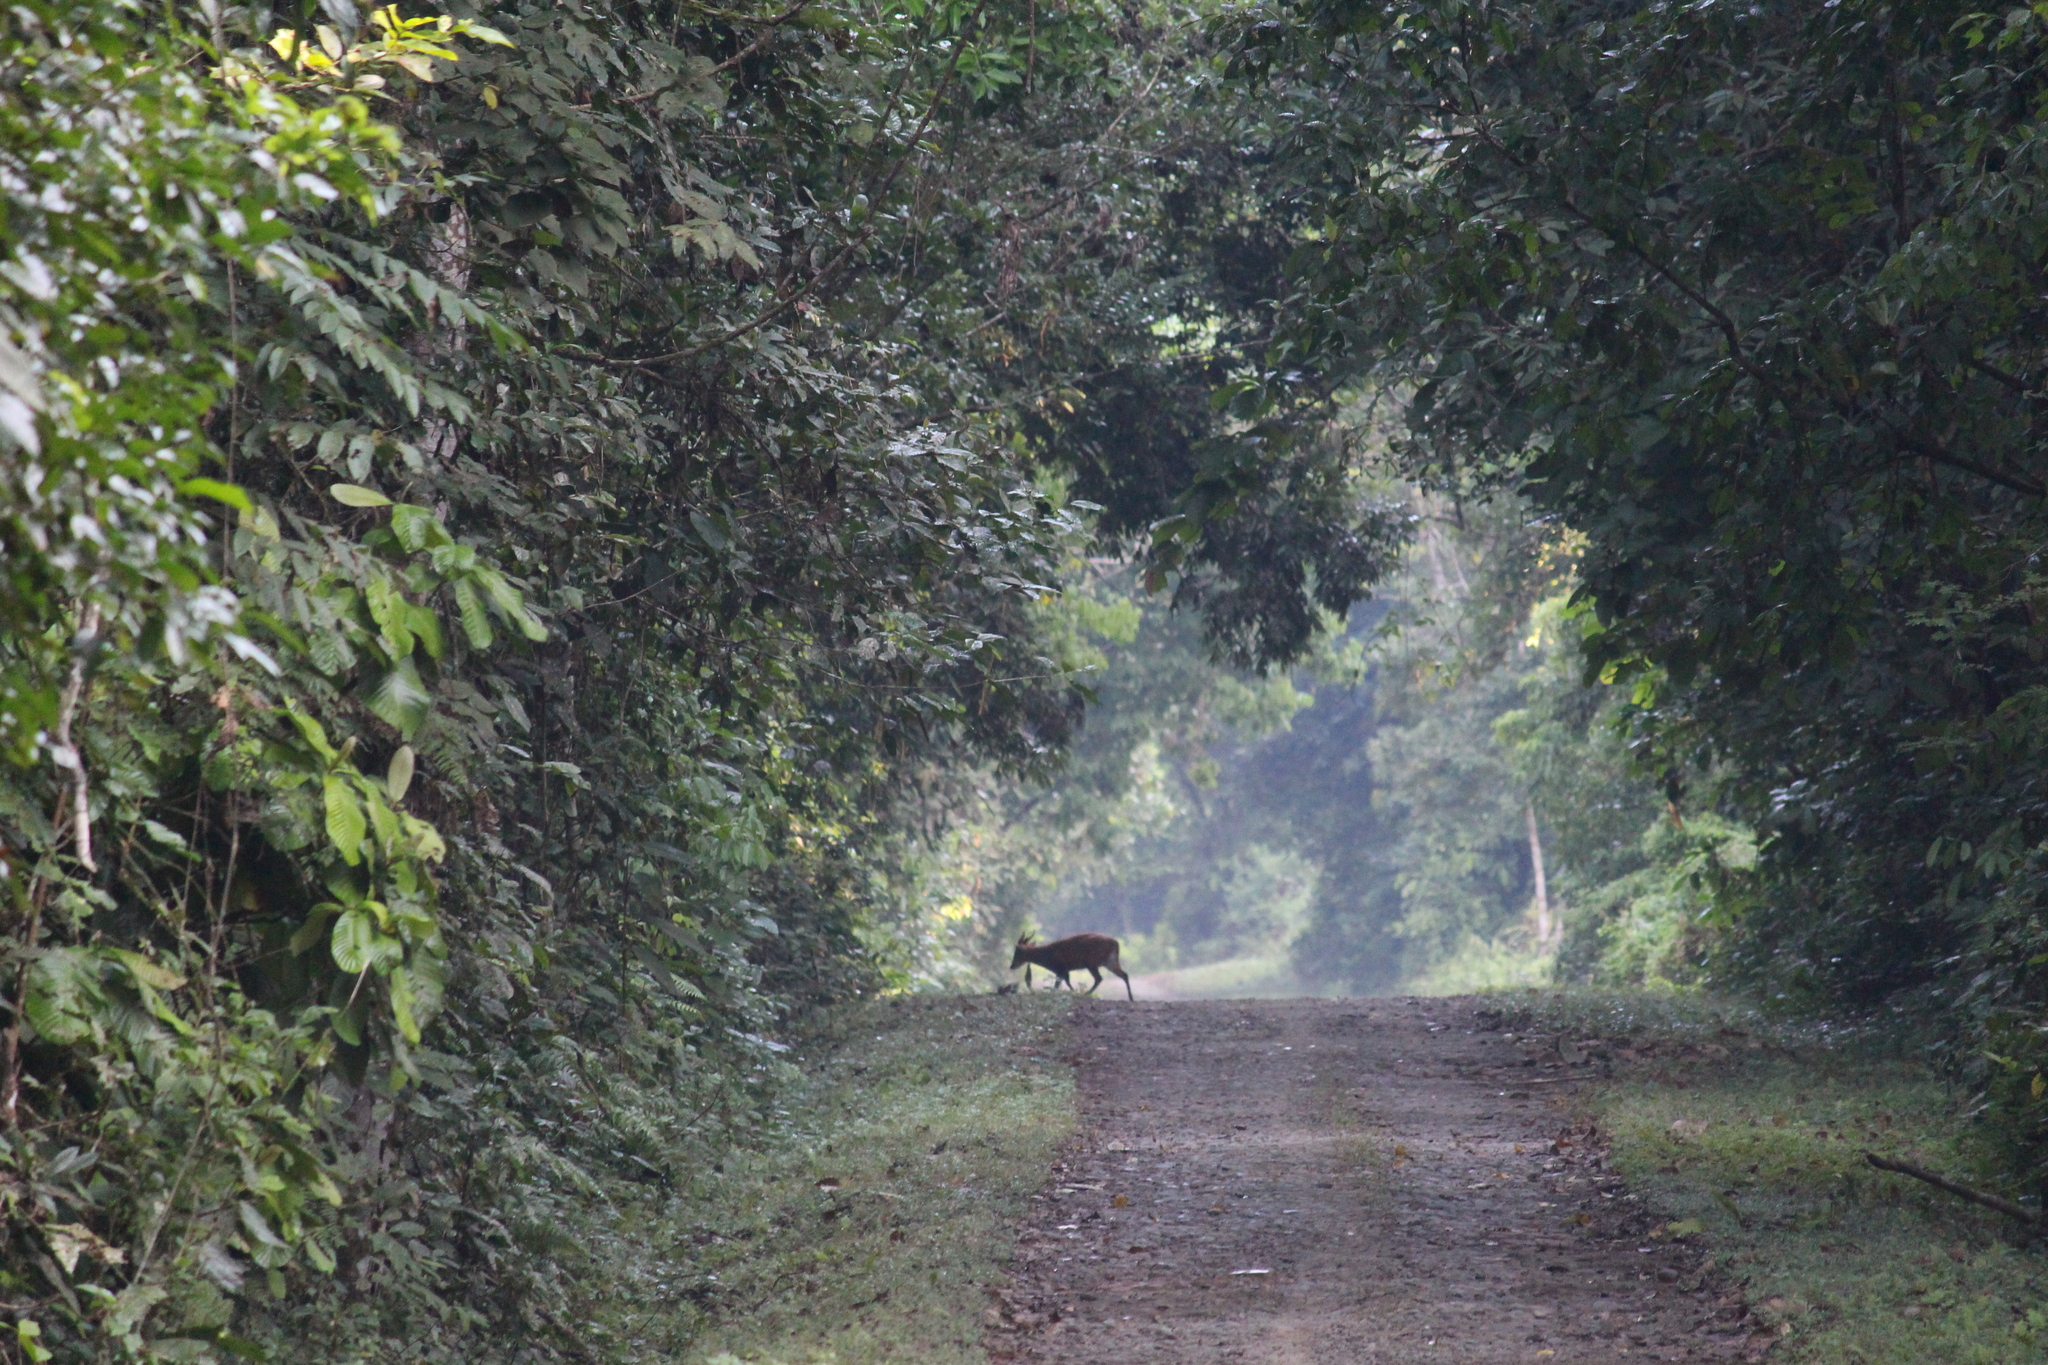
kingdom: Animalia
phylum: Chordata
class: Mammalia
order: Artiodactyla
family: Cervidae
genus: Muntiacus
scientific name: Muntiacus muntjak
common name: Indian muntjac
